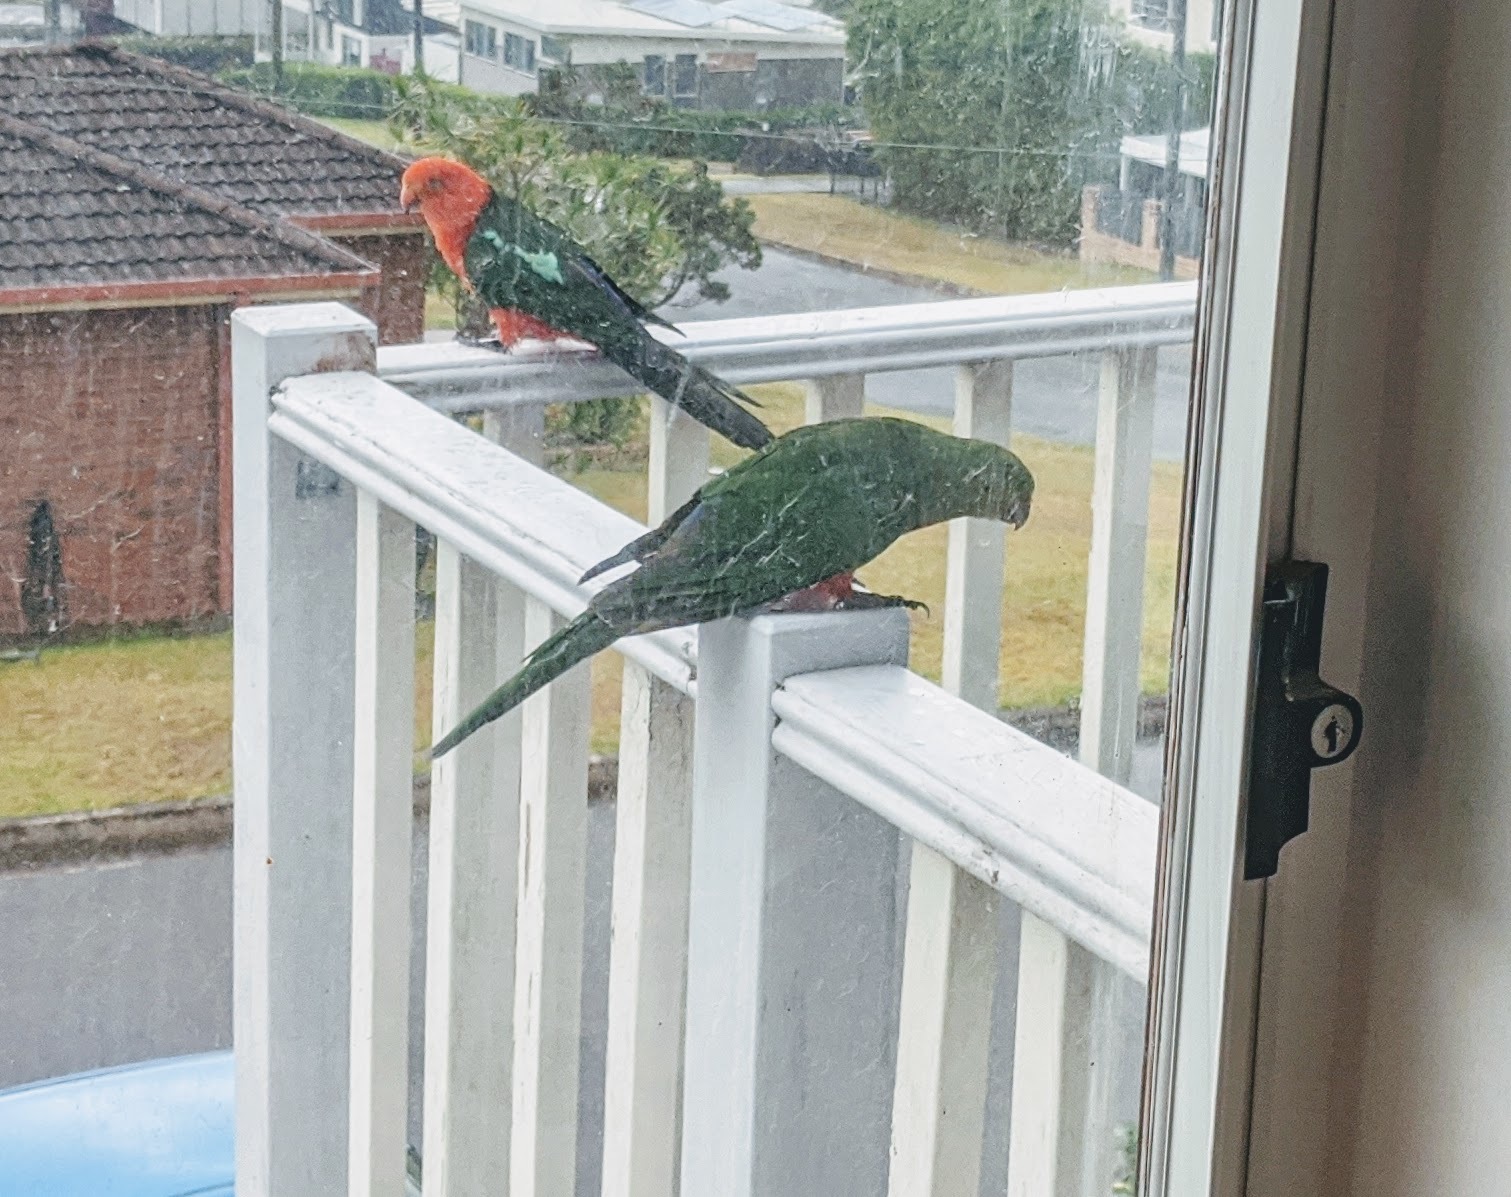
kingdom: Animalia
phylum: Chordata
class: Aves
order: Psittaciformes
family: Psittacidae
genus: Alisterus
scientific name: Alisterus scapularis
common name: Australian king parrot
